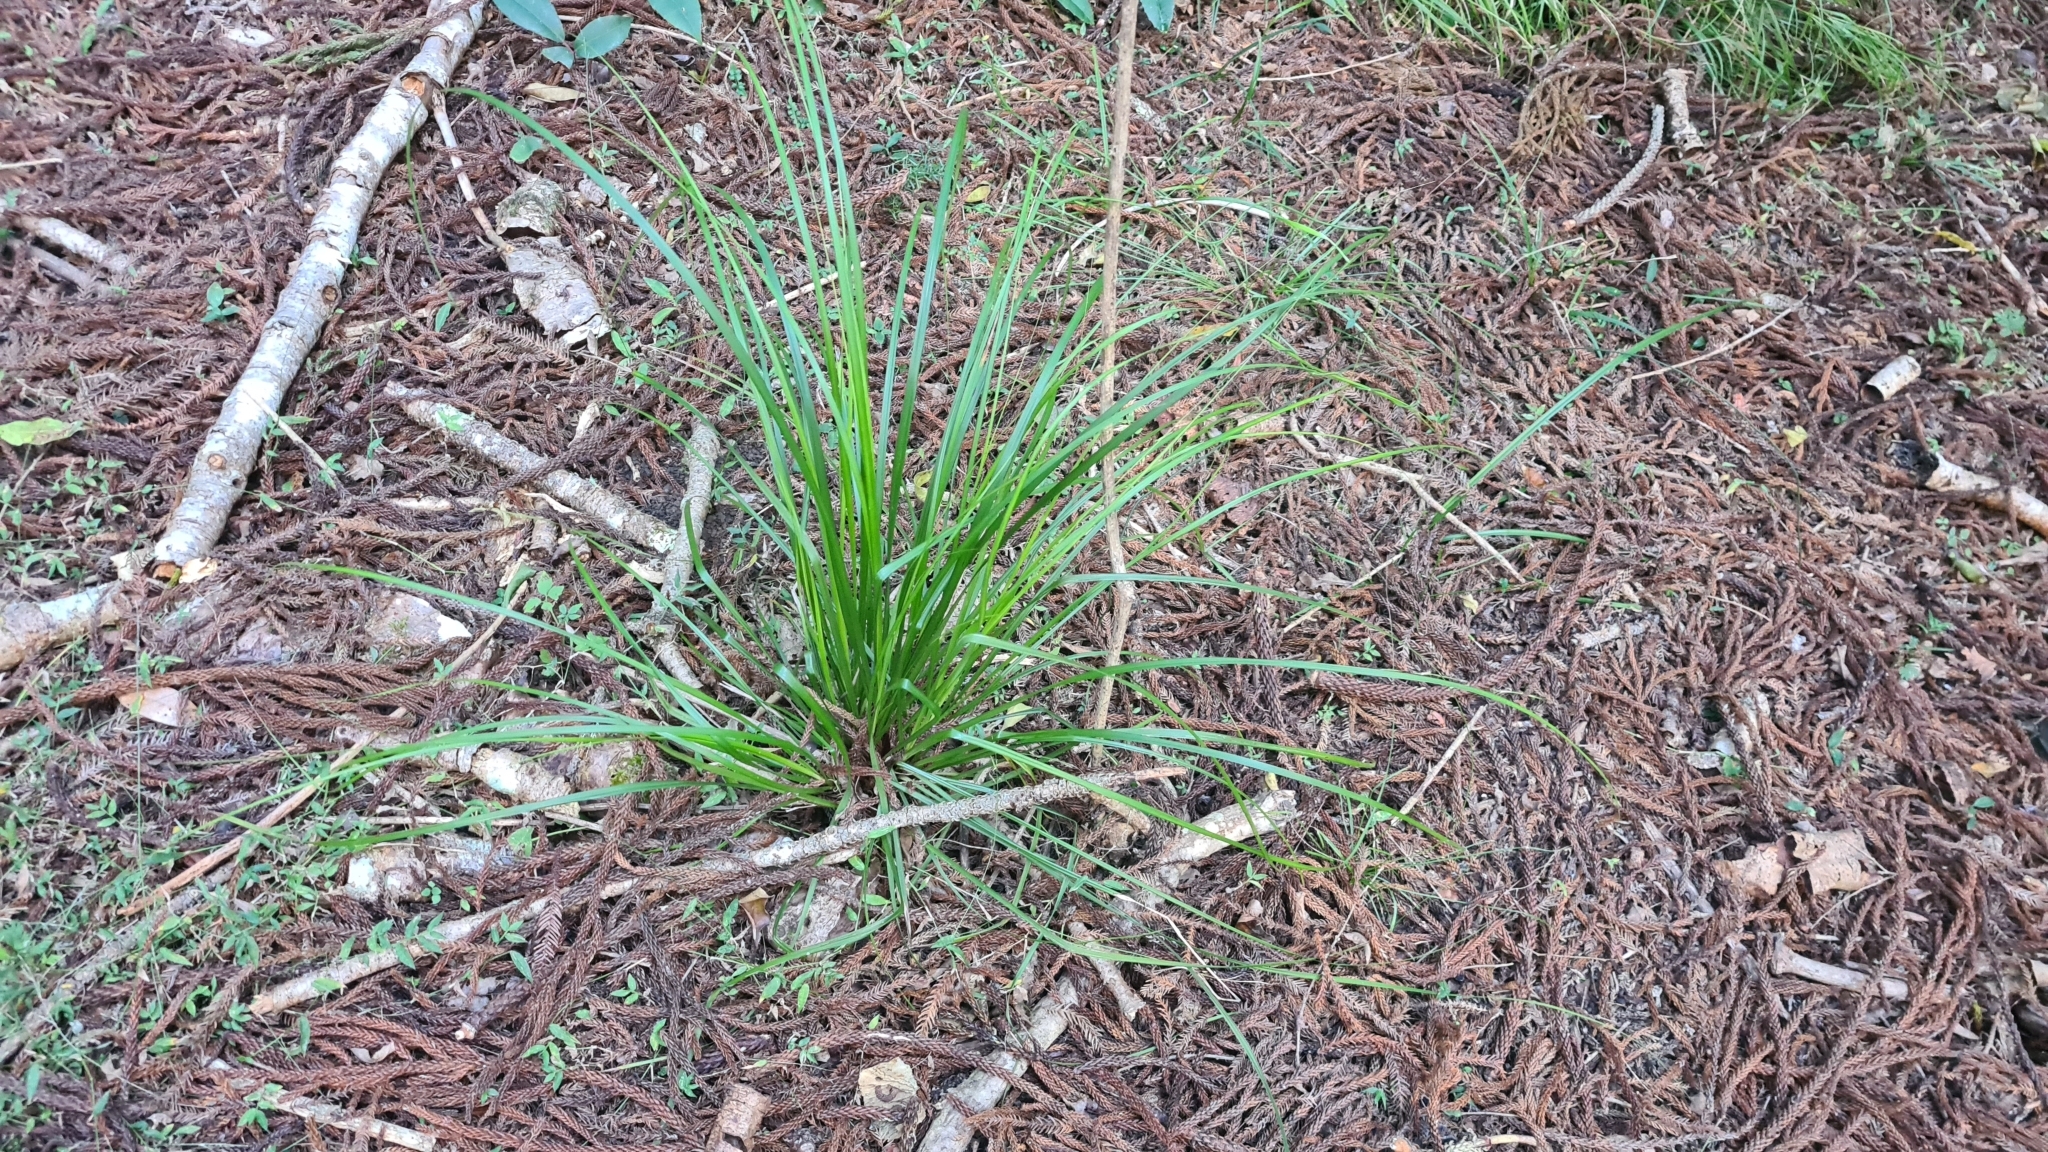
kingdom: Plantae
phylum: Tracheophyta
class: Liliopsida
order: Poales
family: Cyperaceae
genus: Gahnia
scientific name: Gahnia aspera
